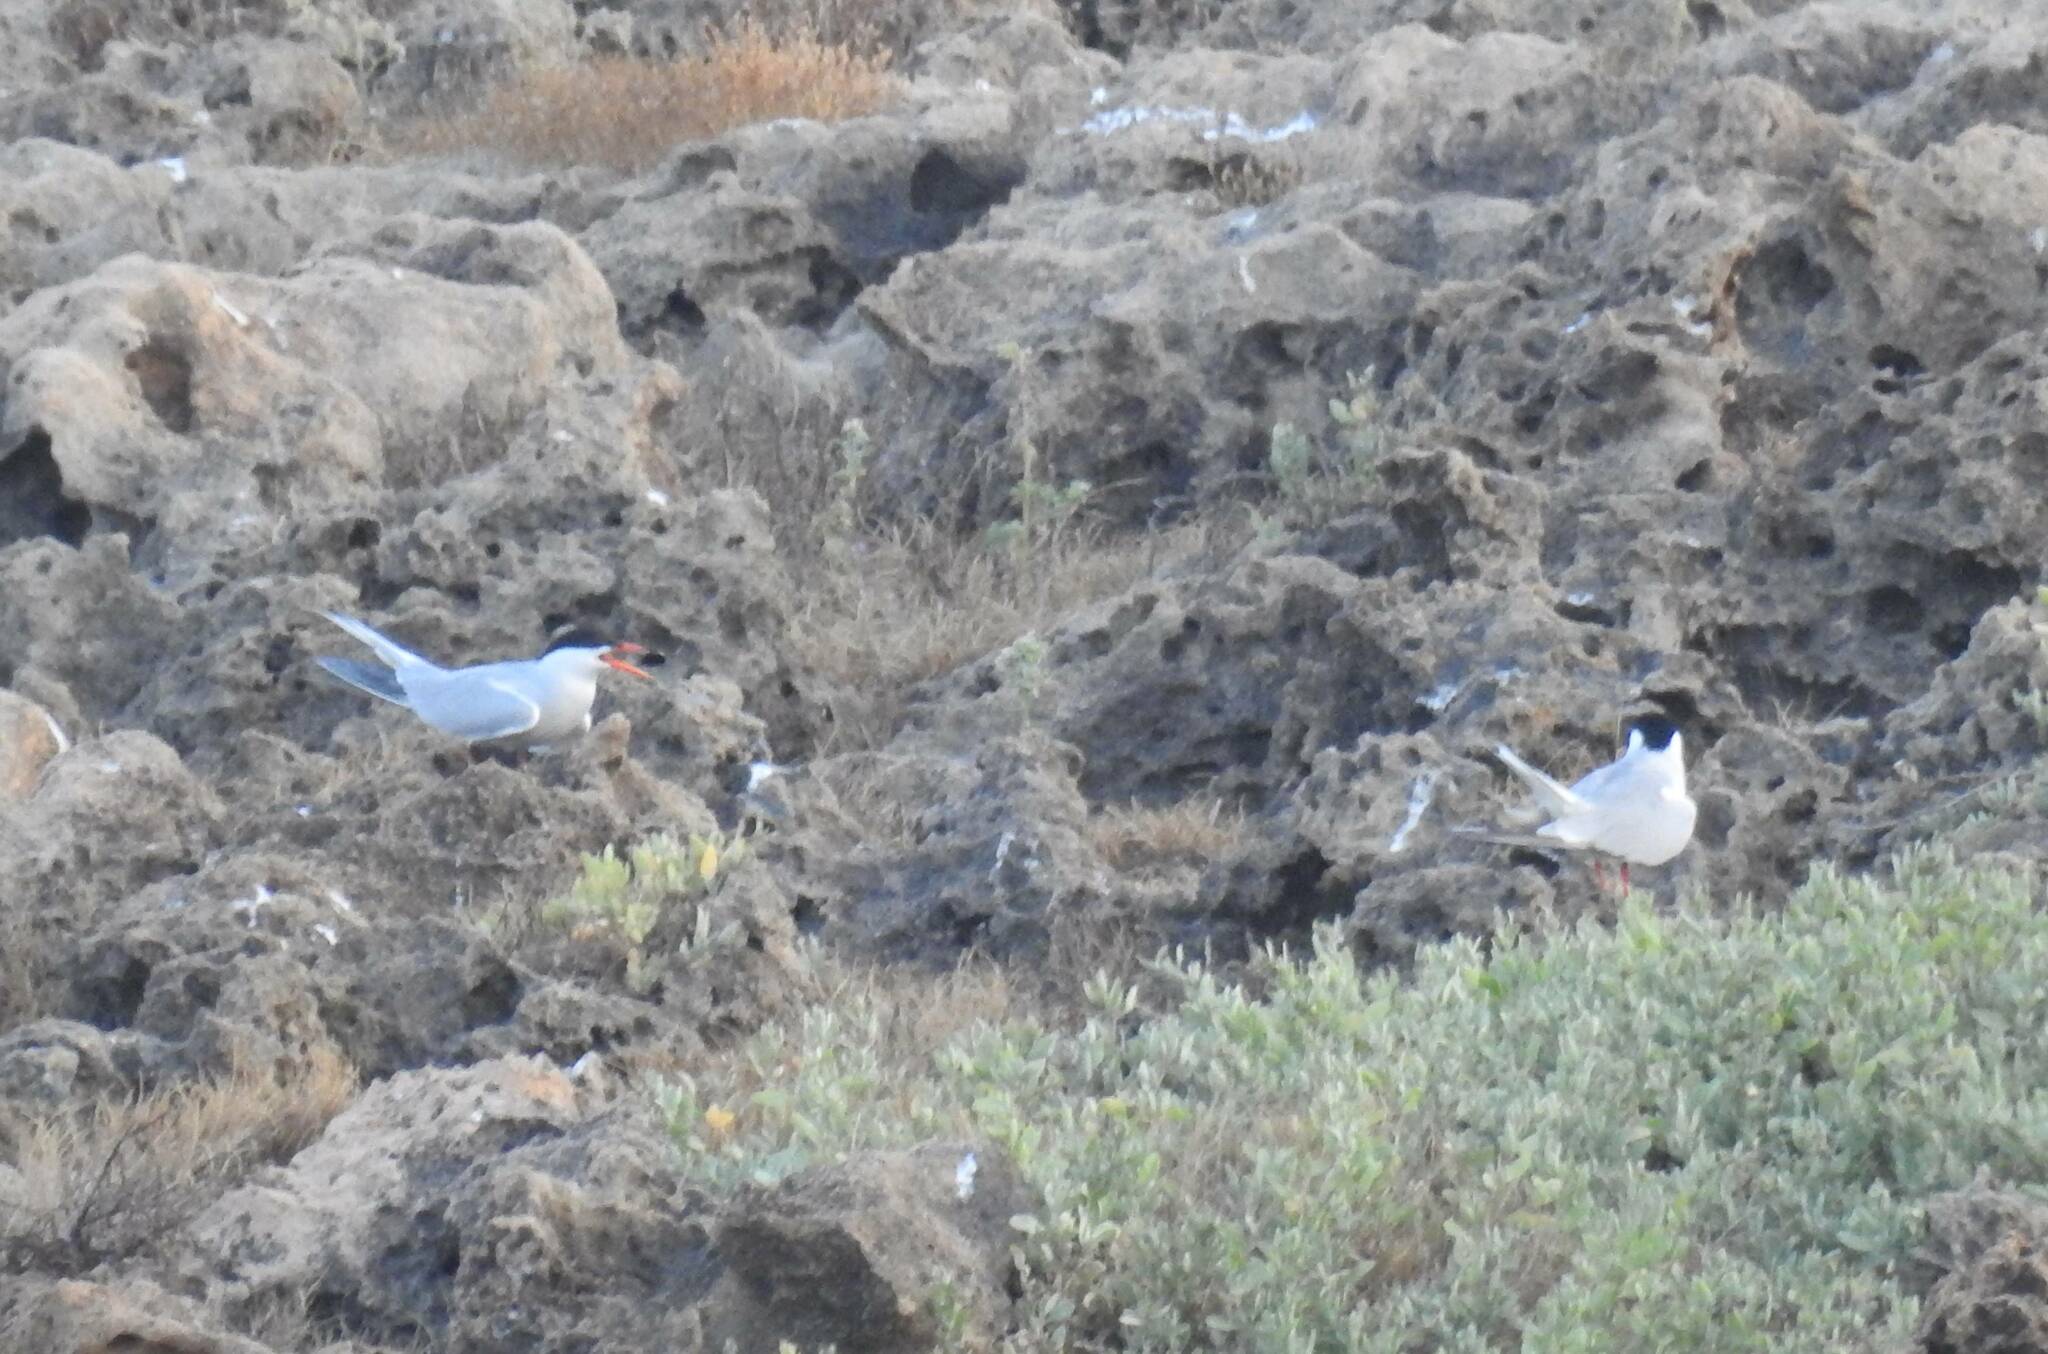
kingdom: Animalia
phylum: Chordata
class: Aves
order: Charadriiformes
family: Laridae
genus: Sterna
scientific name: Sterna hirundo
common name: Common tern
